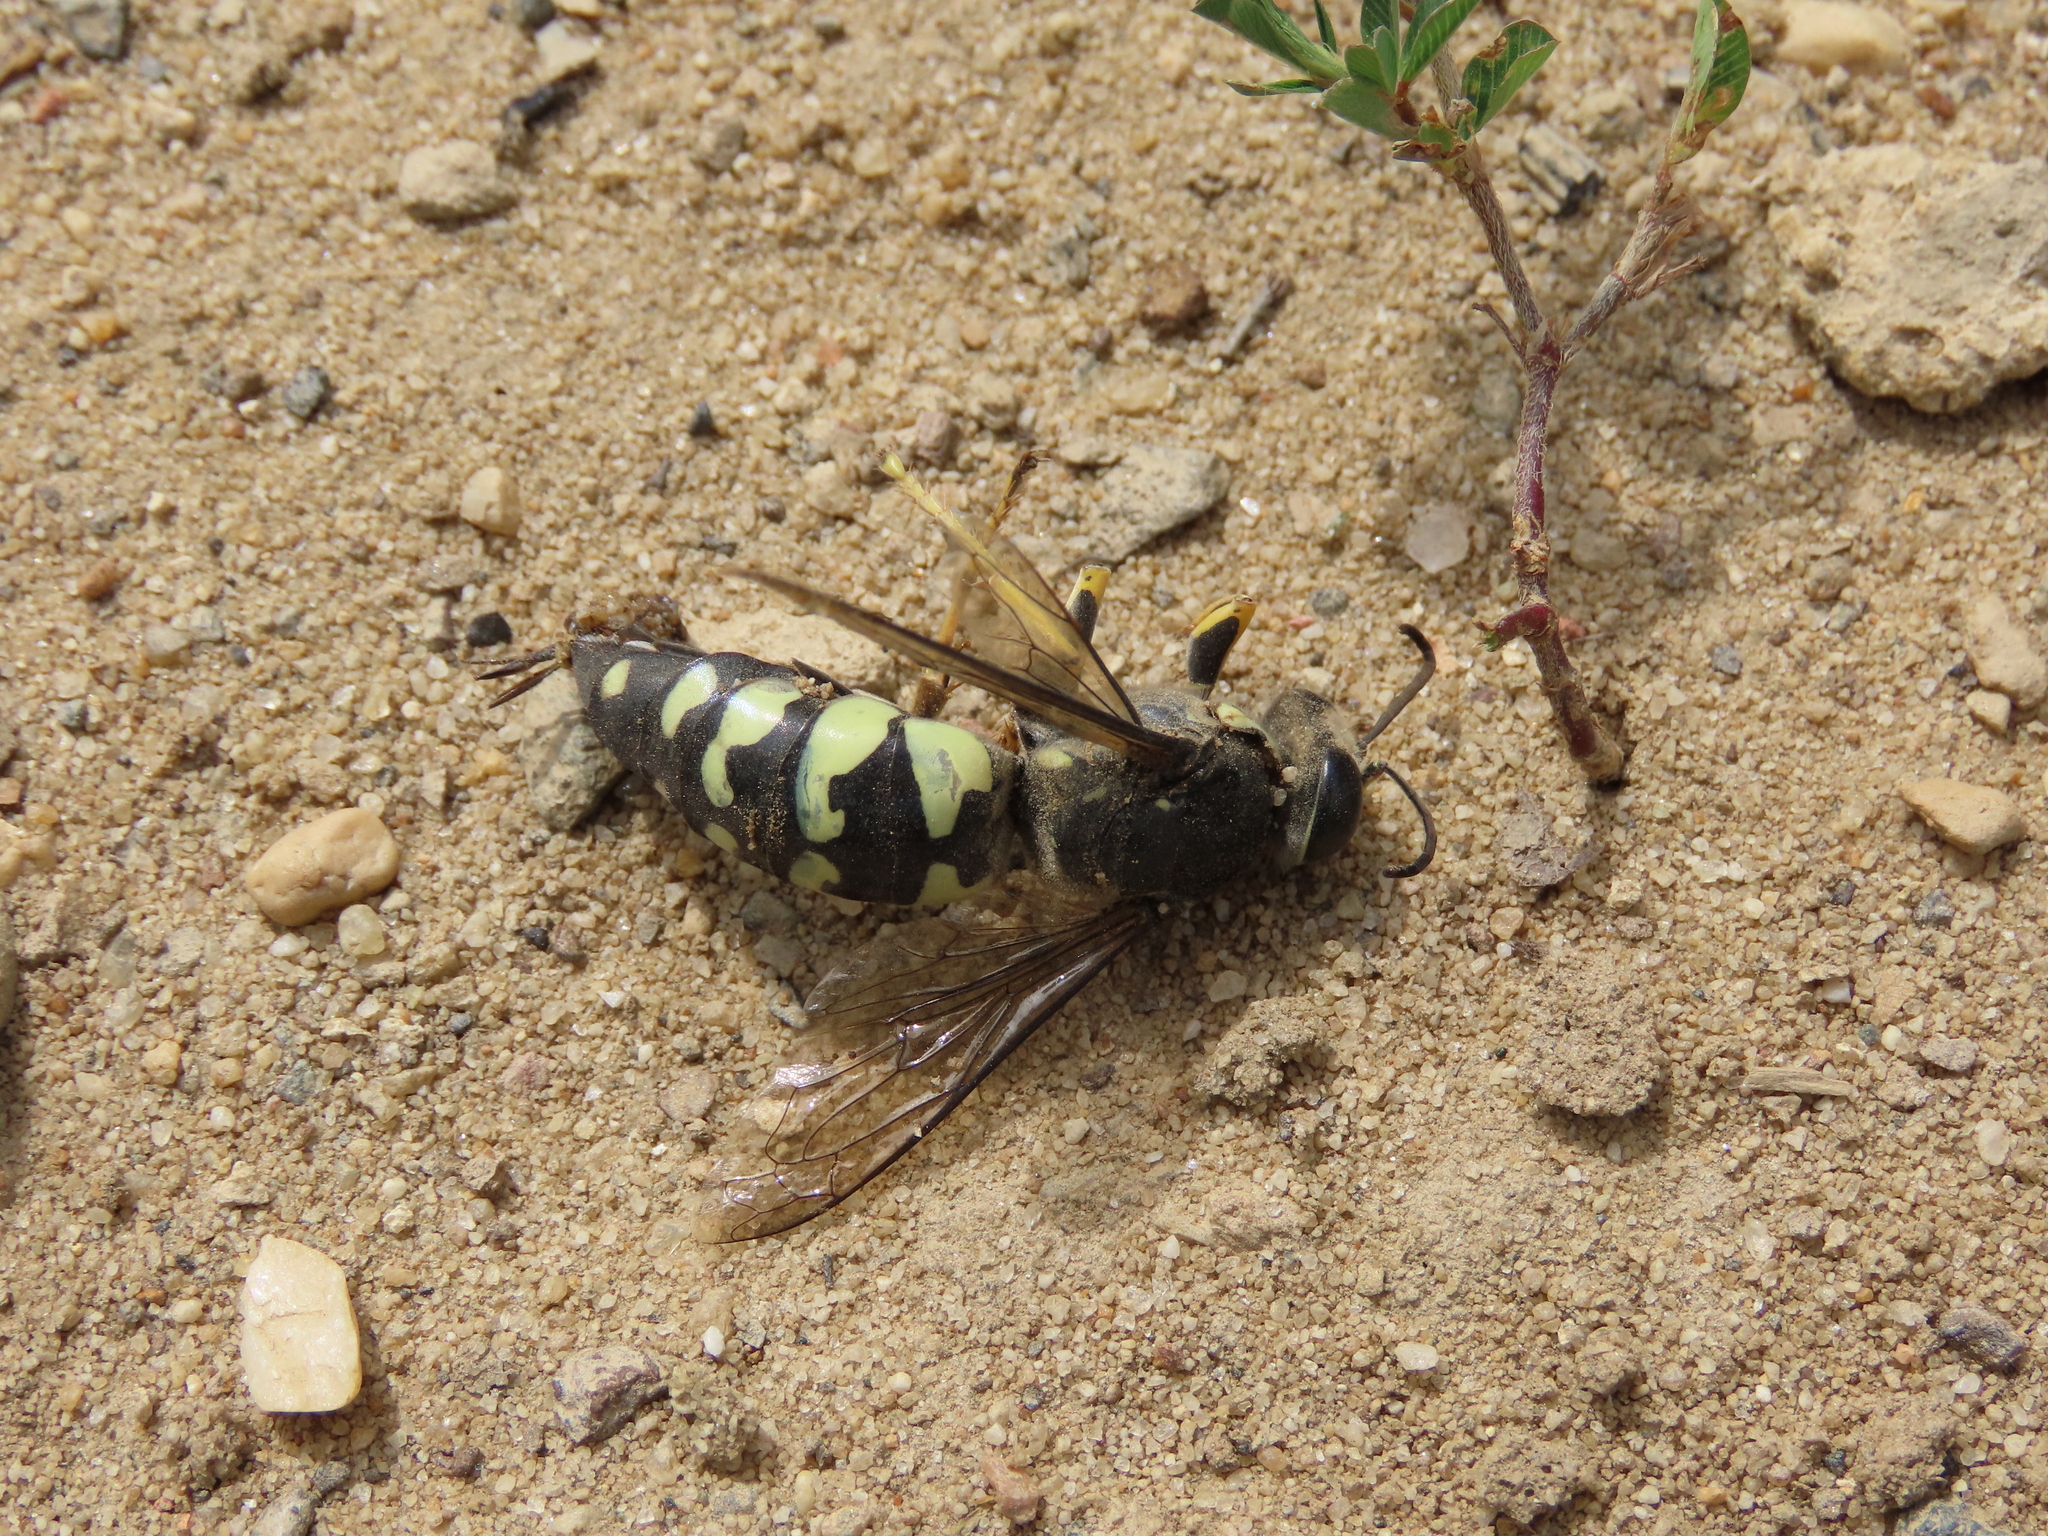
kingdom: Animalia
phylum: Arthropoda
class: Insecta
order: Hymenoptera
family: Crabronidae
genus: Stictia
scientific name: Stictia carolina
